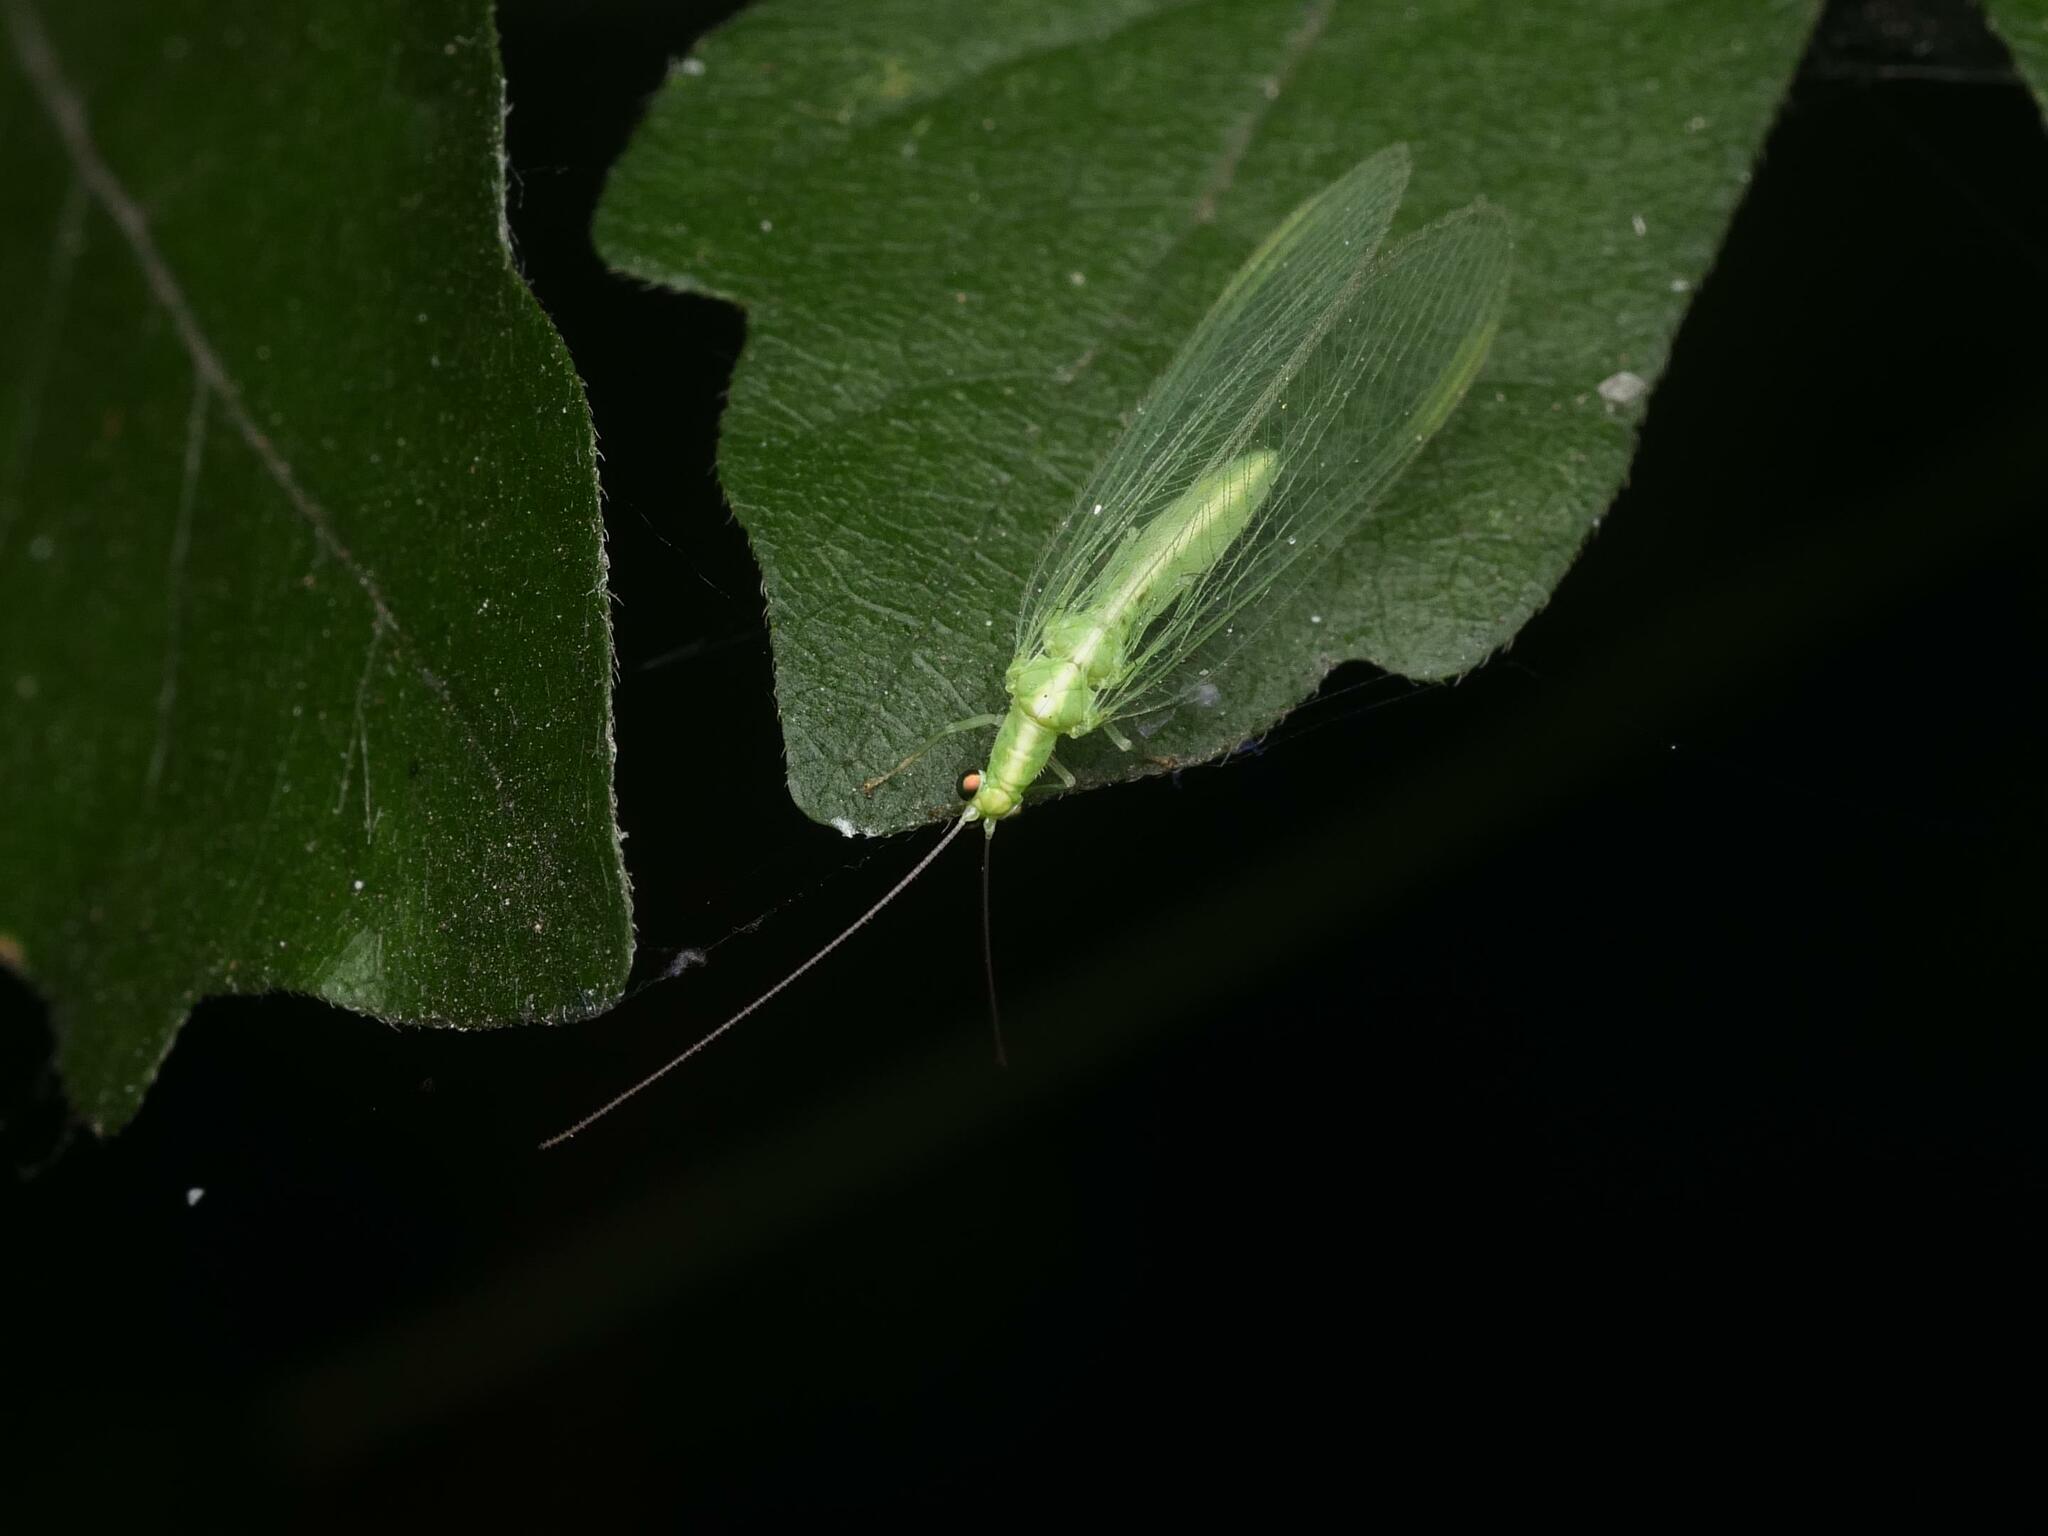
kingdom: Animalia
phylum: Arthropoda
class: Insecta
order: Neuroptera
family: Chrysopidae
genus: Chrysoperla
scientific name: Chrysoperla
